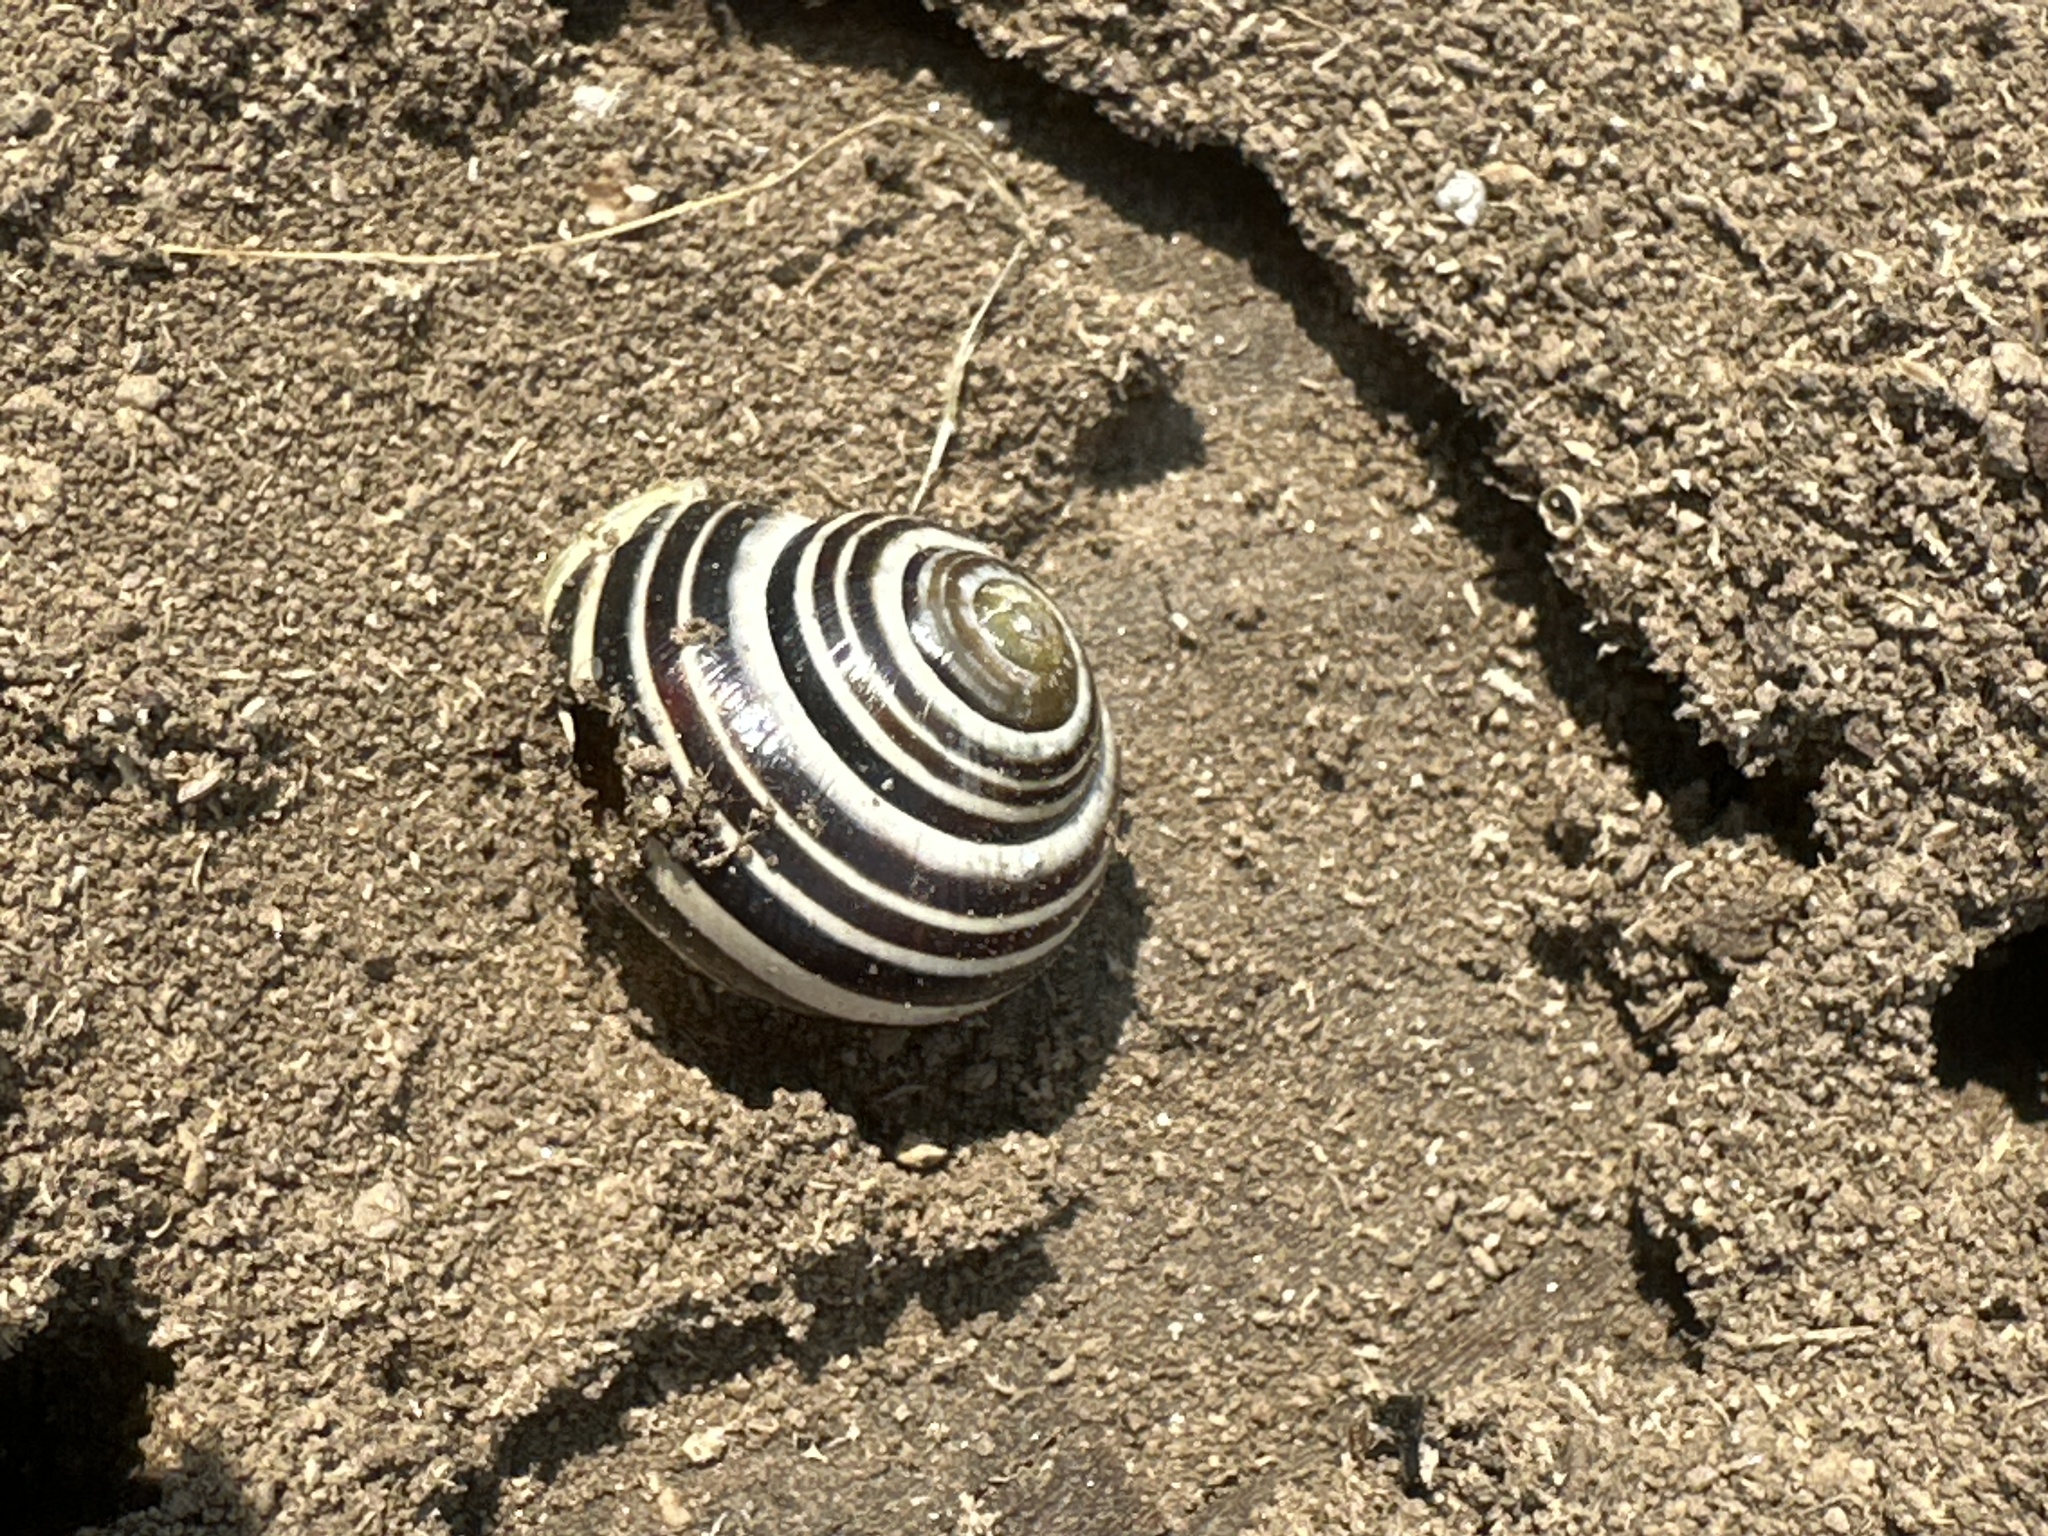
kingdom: Animalia
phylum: Mollusca
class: Gastropoda
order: Stylommatophora
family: Helicidae
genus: Cepaea
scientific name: Cepaea hortensis
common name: White-lip gardensnail
